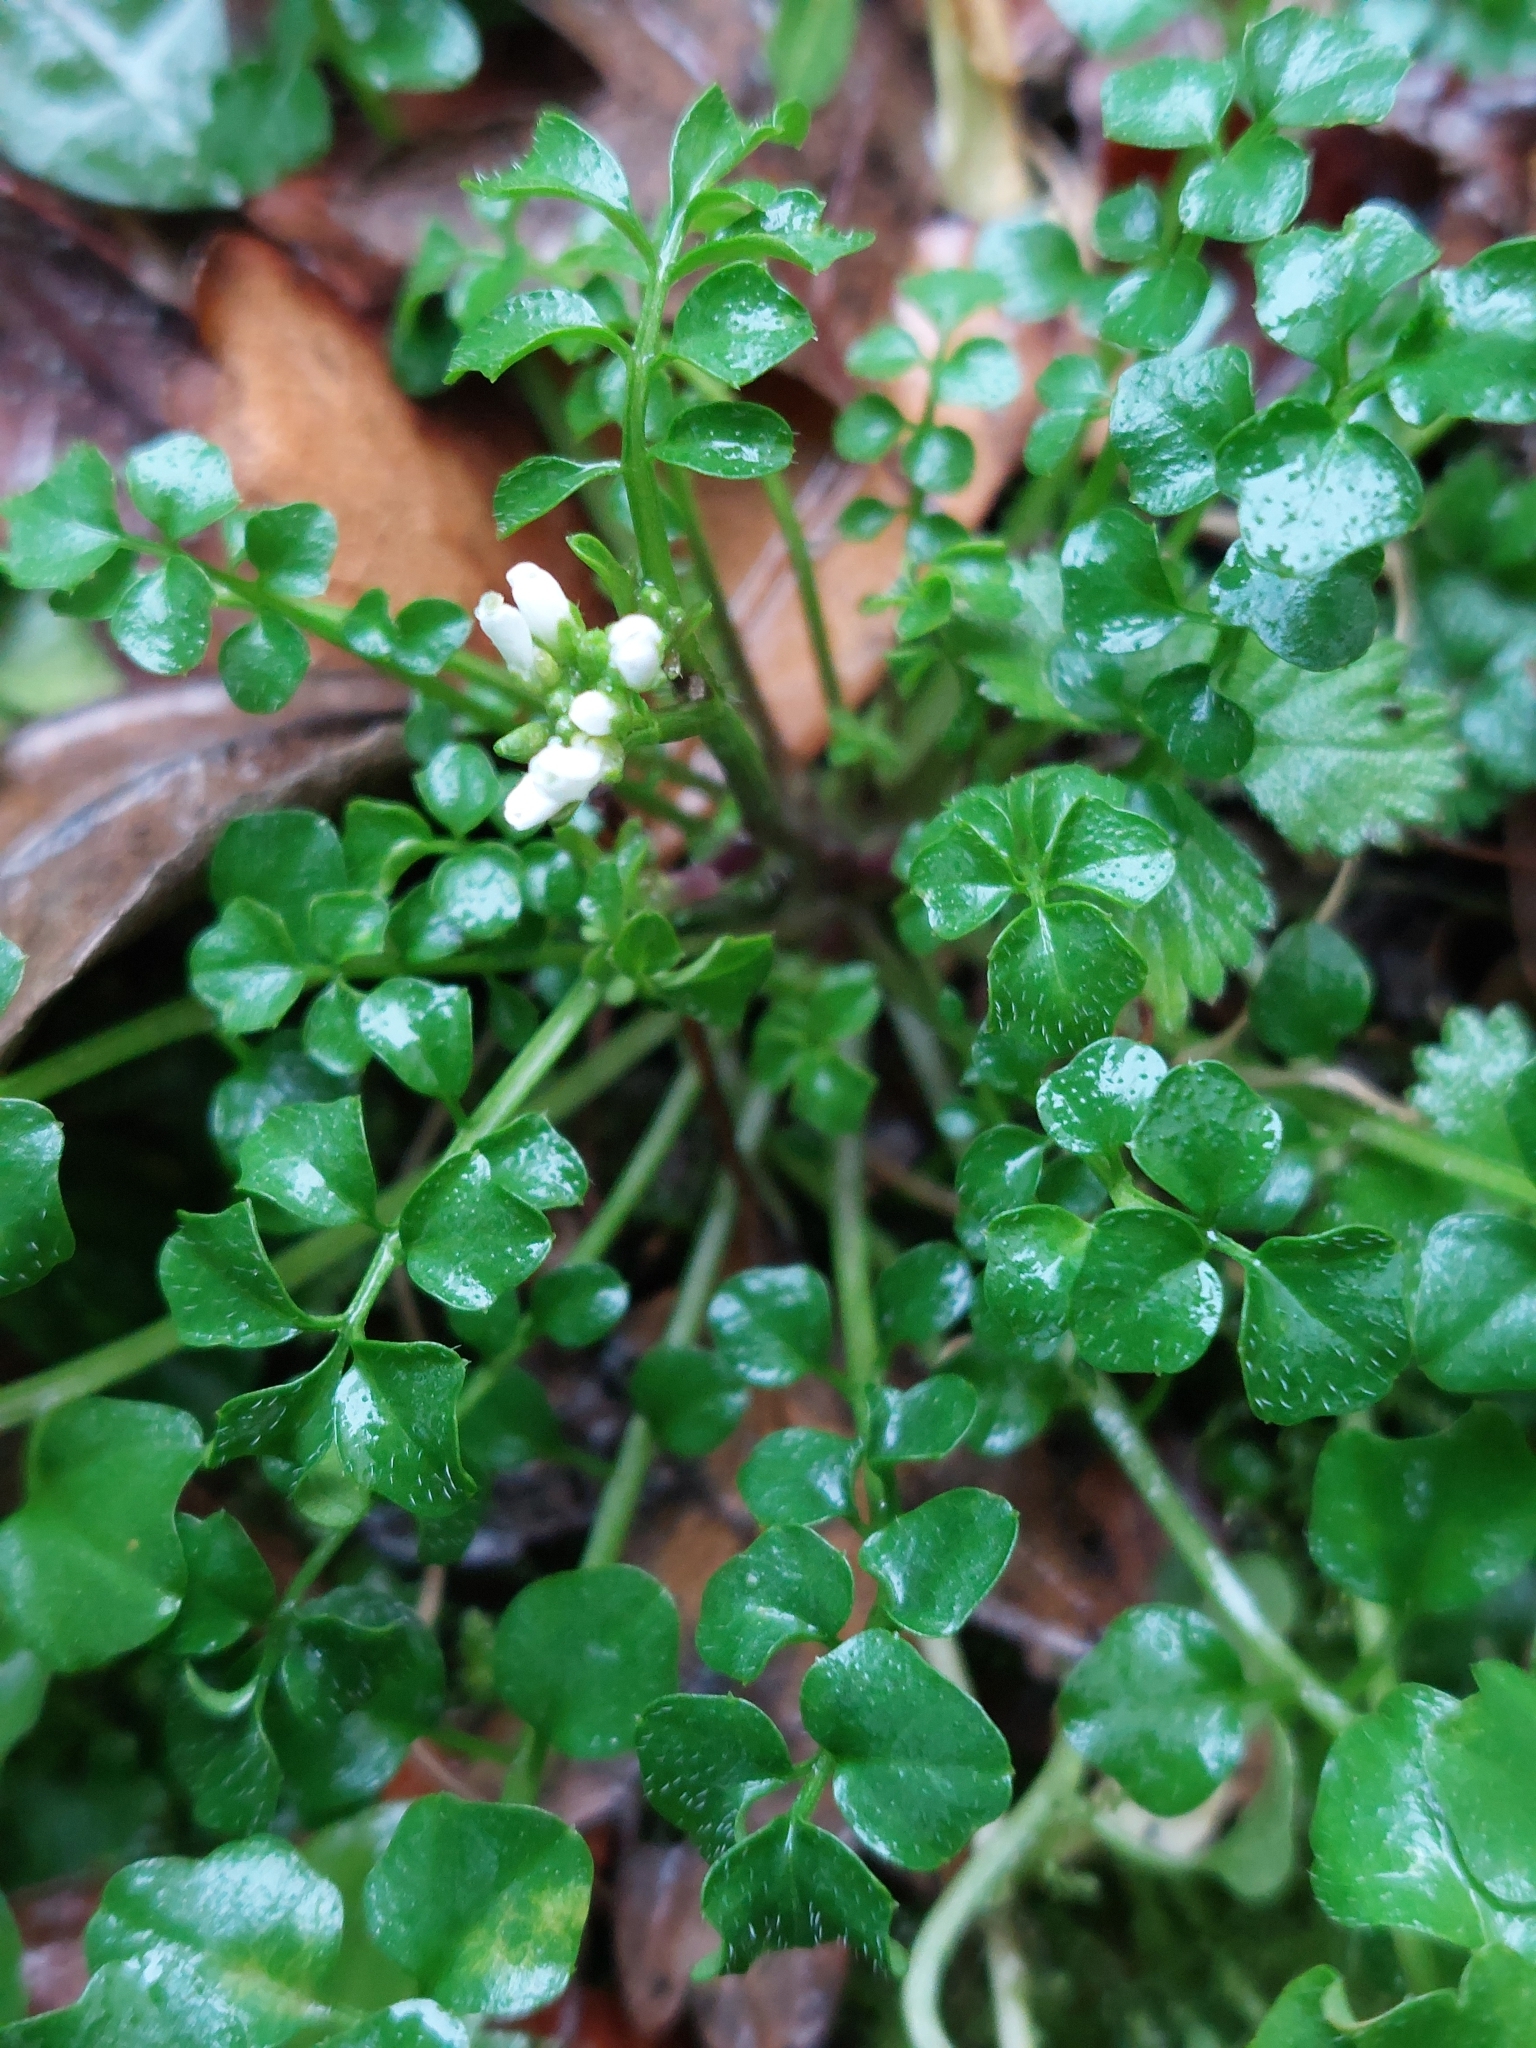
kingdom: Plantae
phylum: Tracheophyta
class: Magnoliopsida
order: Brassicales
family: Brassicaceae
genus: Cardamine
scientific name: Cardamine hirsuta
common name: Hairy bittercress
